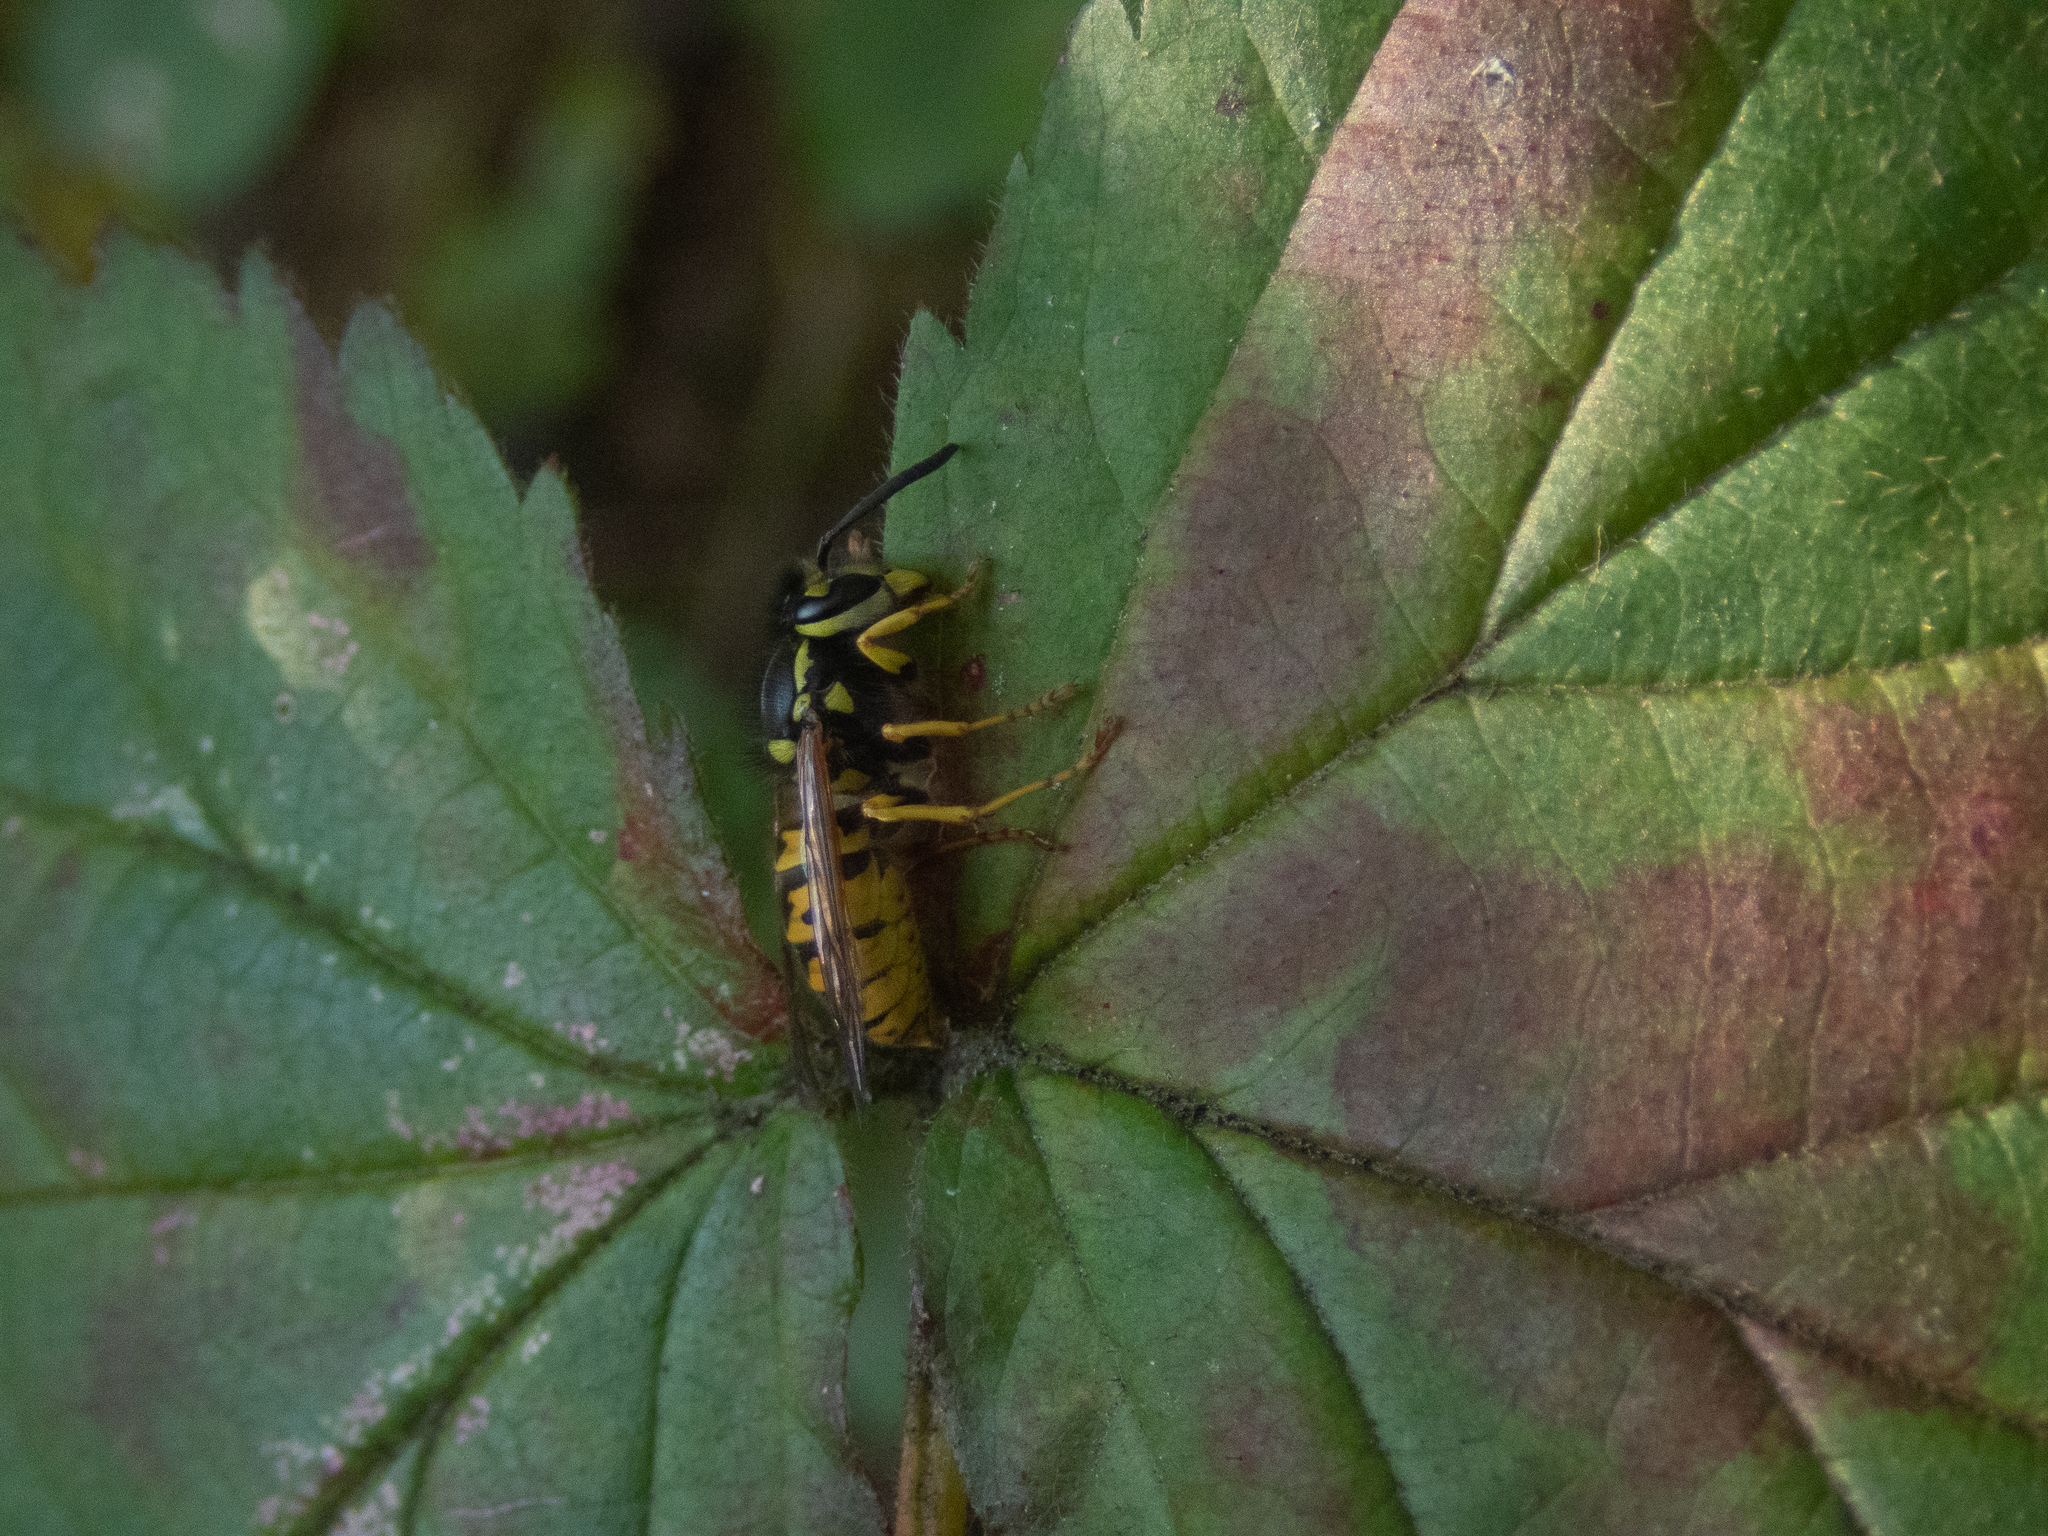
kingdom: Animalia
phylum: Arthropoda
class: Insecta
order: Hymenoptera
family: Vespidae
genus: Vespula
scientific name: Vespula germanica
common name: German wasp
